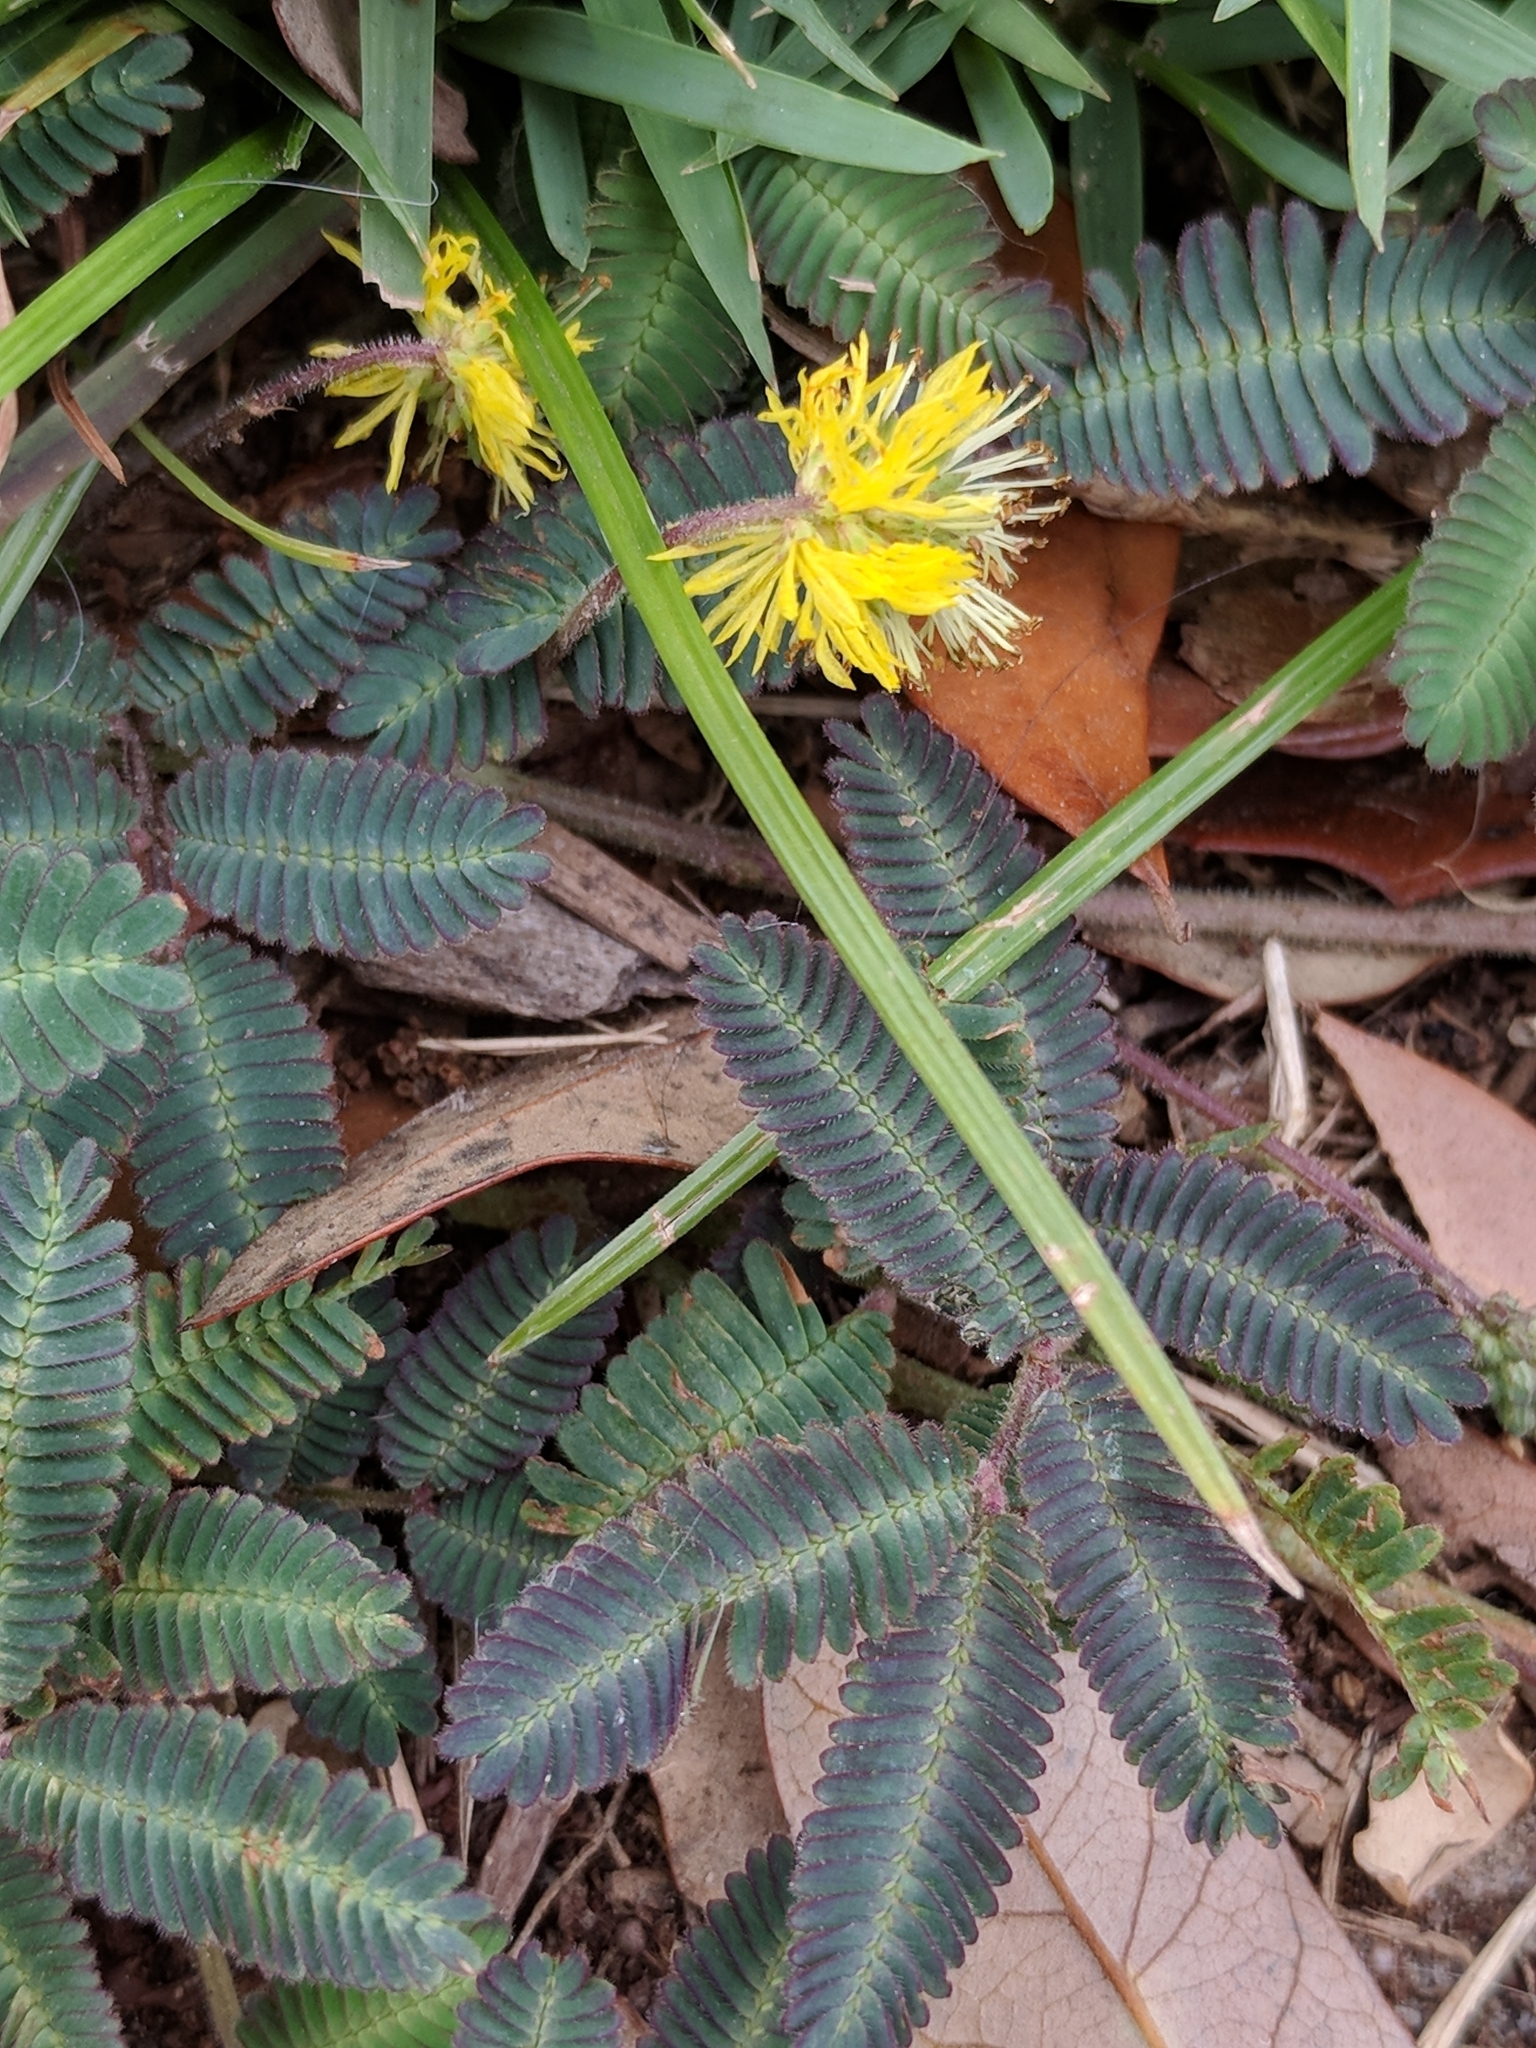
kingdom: Plantae
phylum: Tracheophyta
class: Magnoliopsida
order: Fabales
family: Fabaceae
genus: Neptunia
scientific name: Neptunia pubescens
